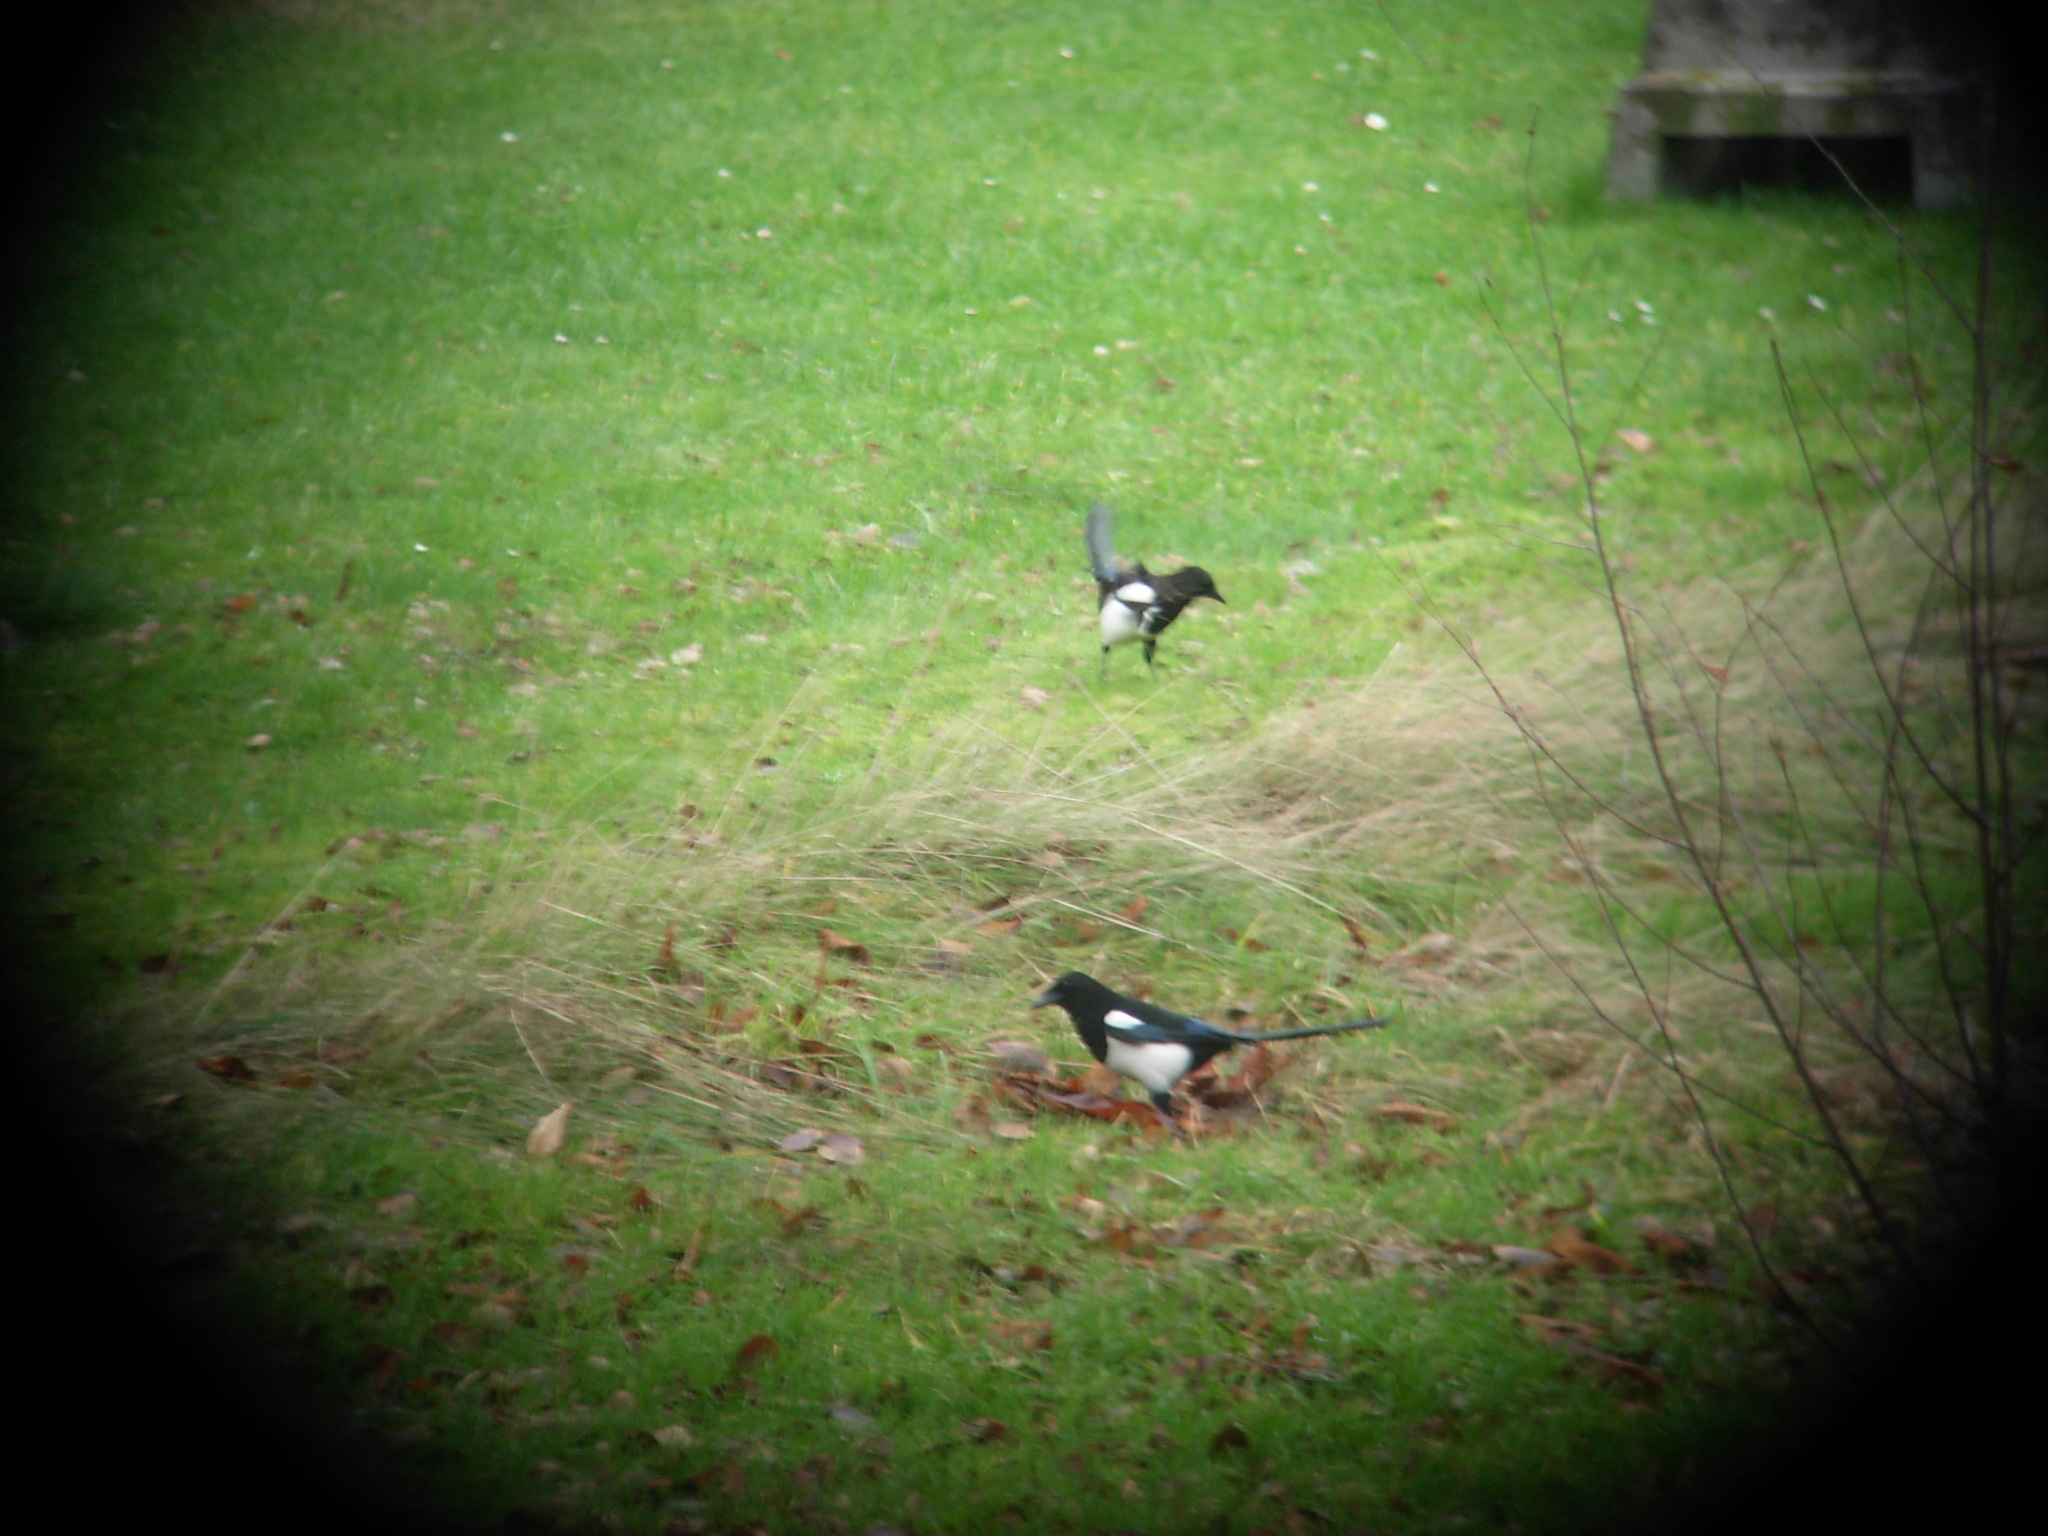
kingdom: Animalia
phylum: Chordata
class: Aves
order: Passeriformes
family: Corvidae
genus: Pica
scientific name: Pica pica
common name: Eurasian magpie
